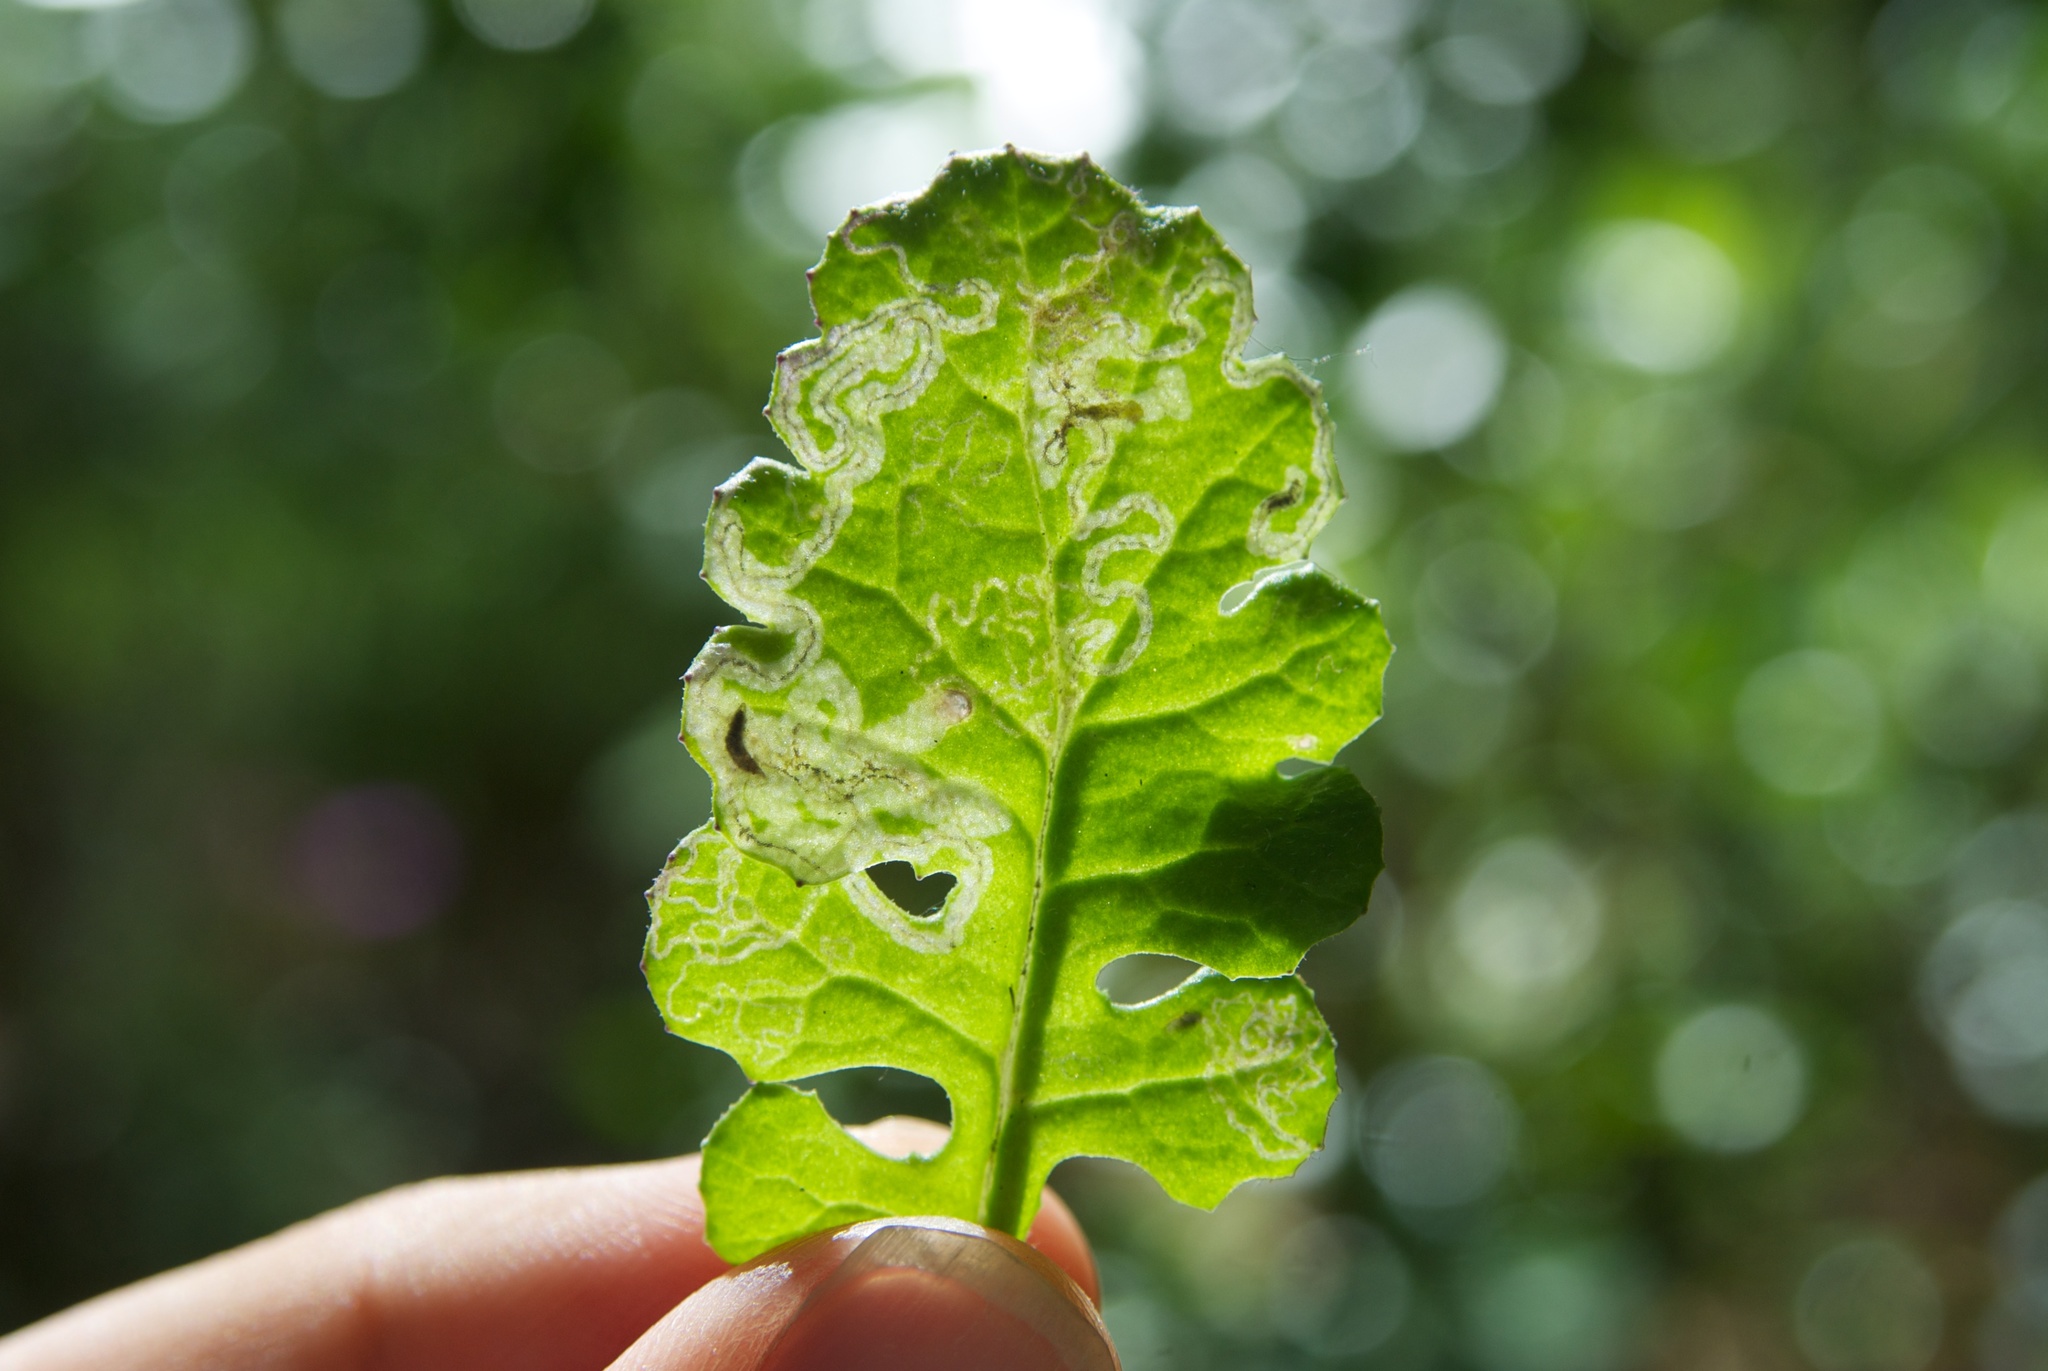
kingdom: Animalia
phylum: Arthropoda
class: Insecta
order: Lepidoptera
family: Nepticulidae
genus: Stigmella
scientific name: Stigmella ogygia
